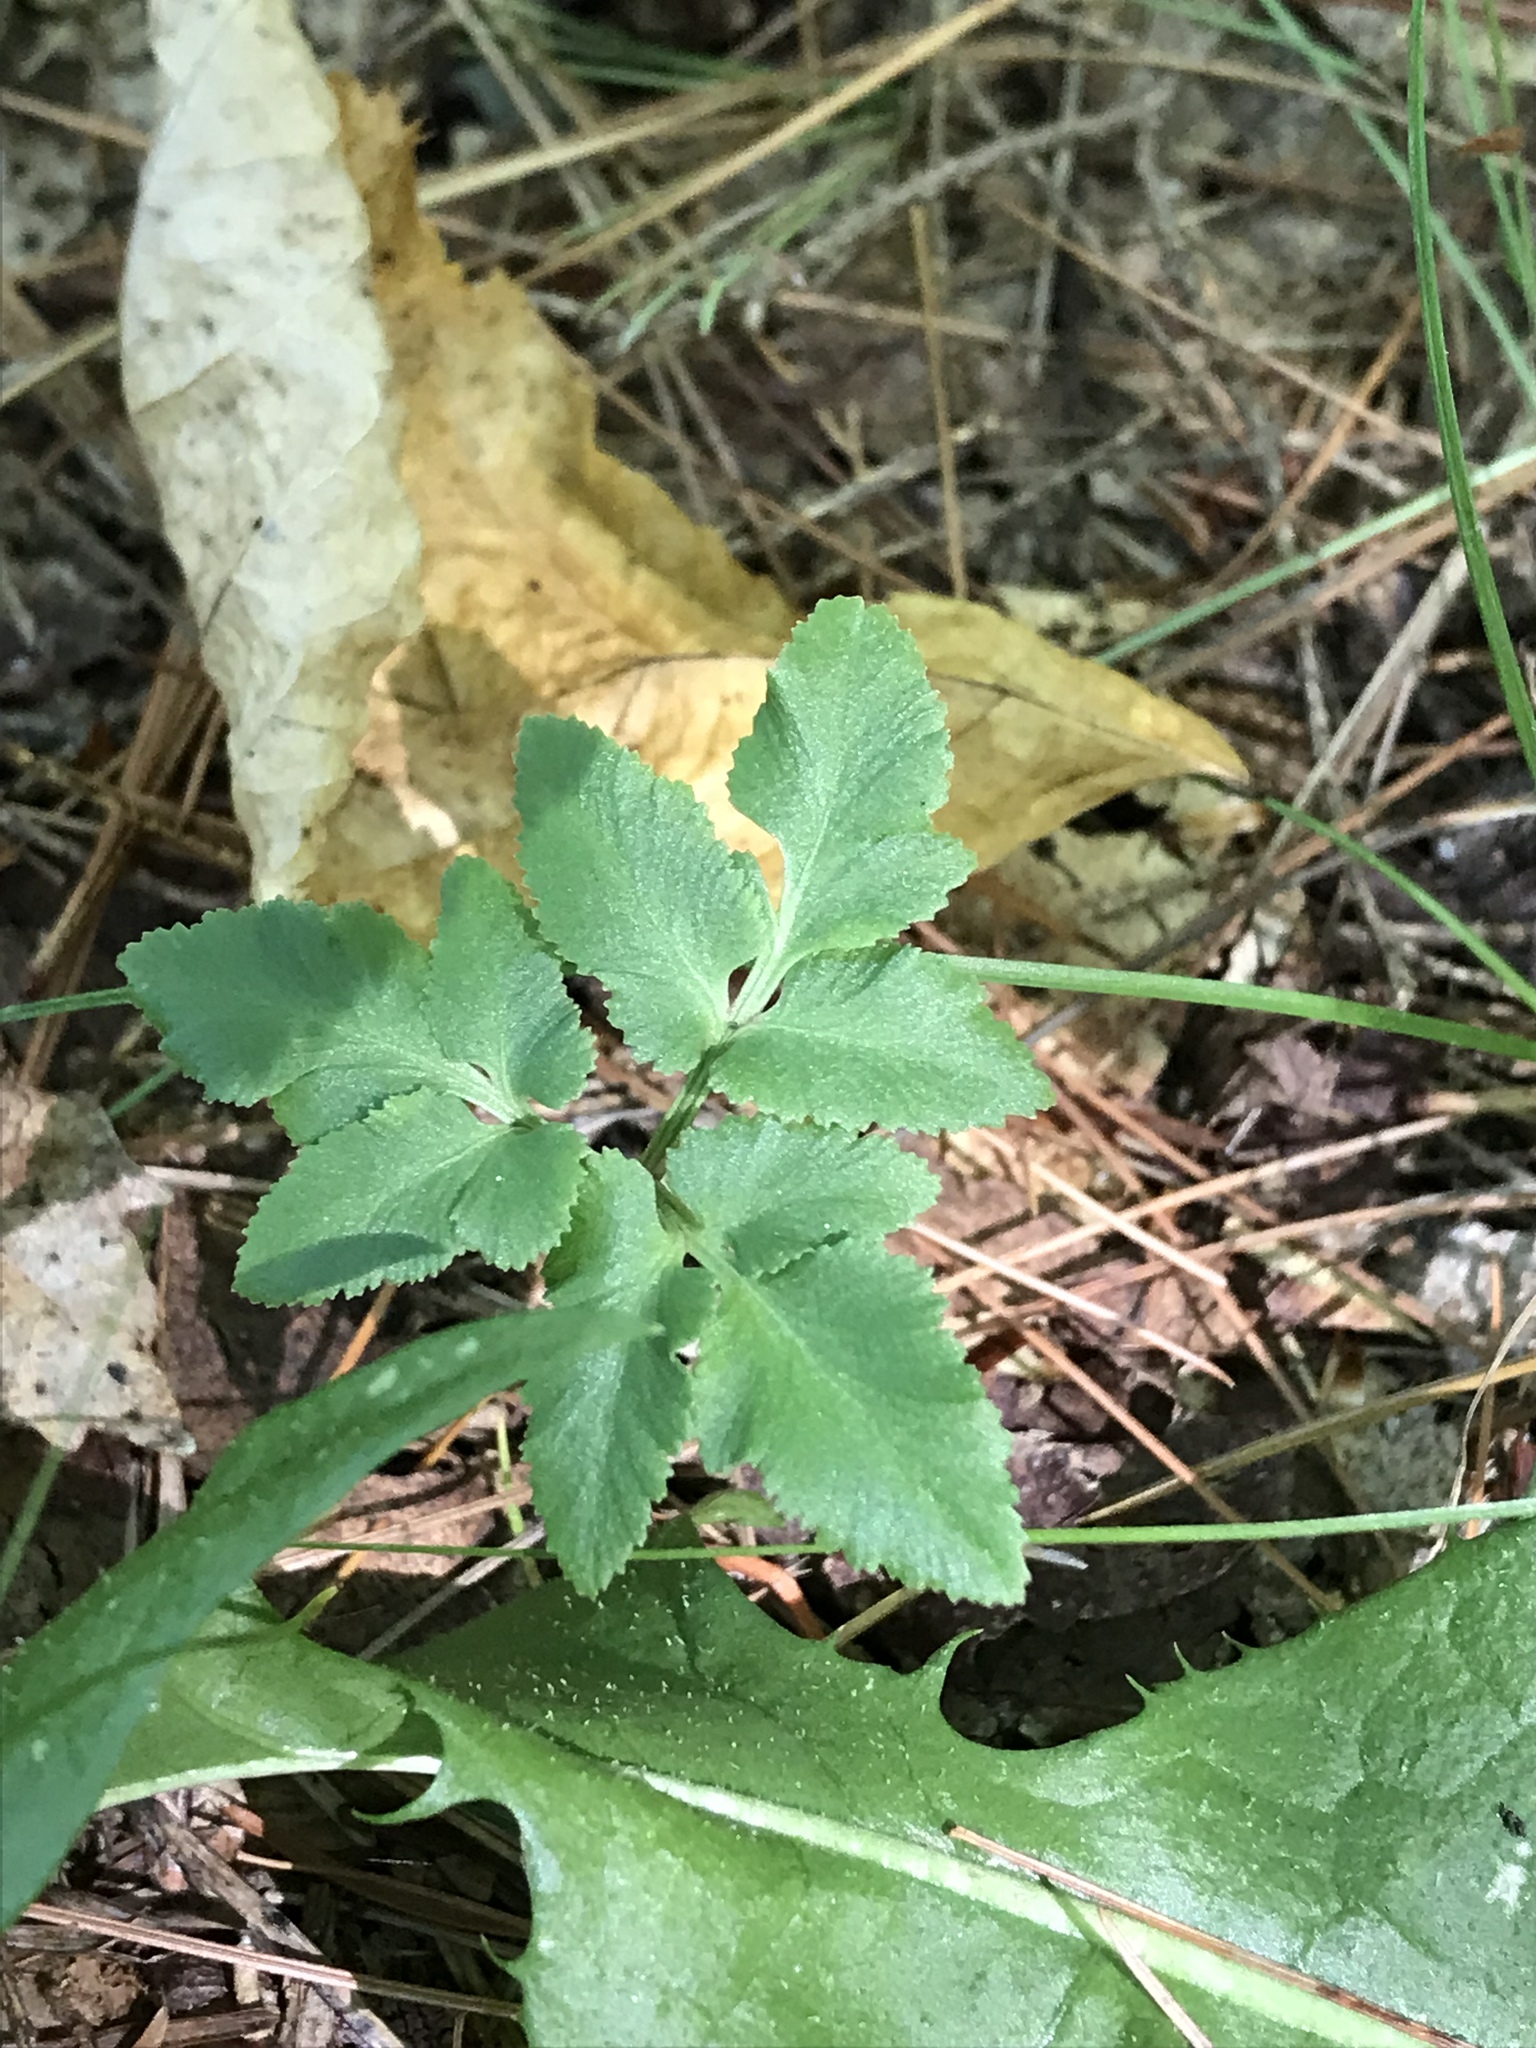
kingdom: Plantae
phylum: Tracheophyta
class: Polypodiopsida
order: Ophioglossales
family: Ophioglossaceae
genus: Sceptridium
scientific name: Sceptridium dissectum
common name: Cut-leaved grapefern
